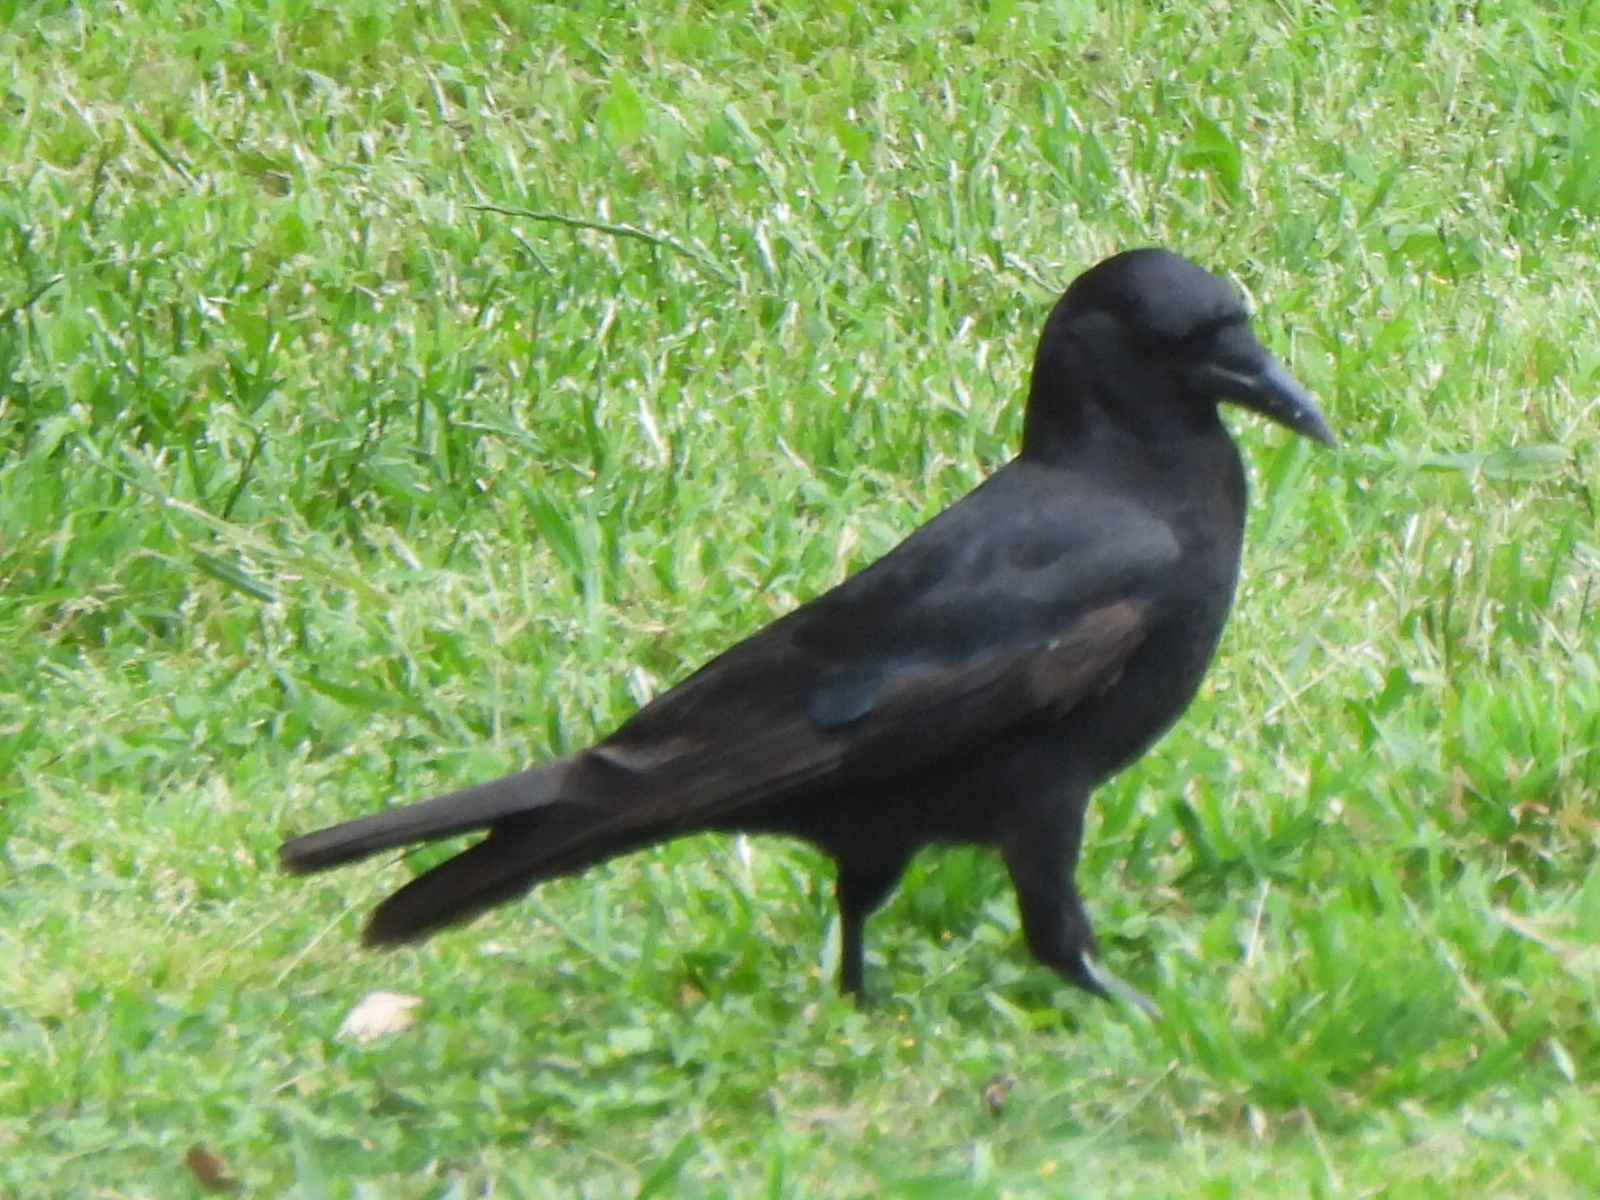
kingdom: Animalia
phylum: Chordata
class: Aves
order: Passeriformes
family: Corvidae
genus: Corvus
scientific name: Corvus brachyrhynchos
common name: American crow
